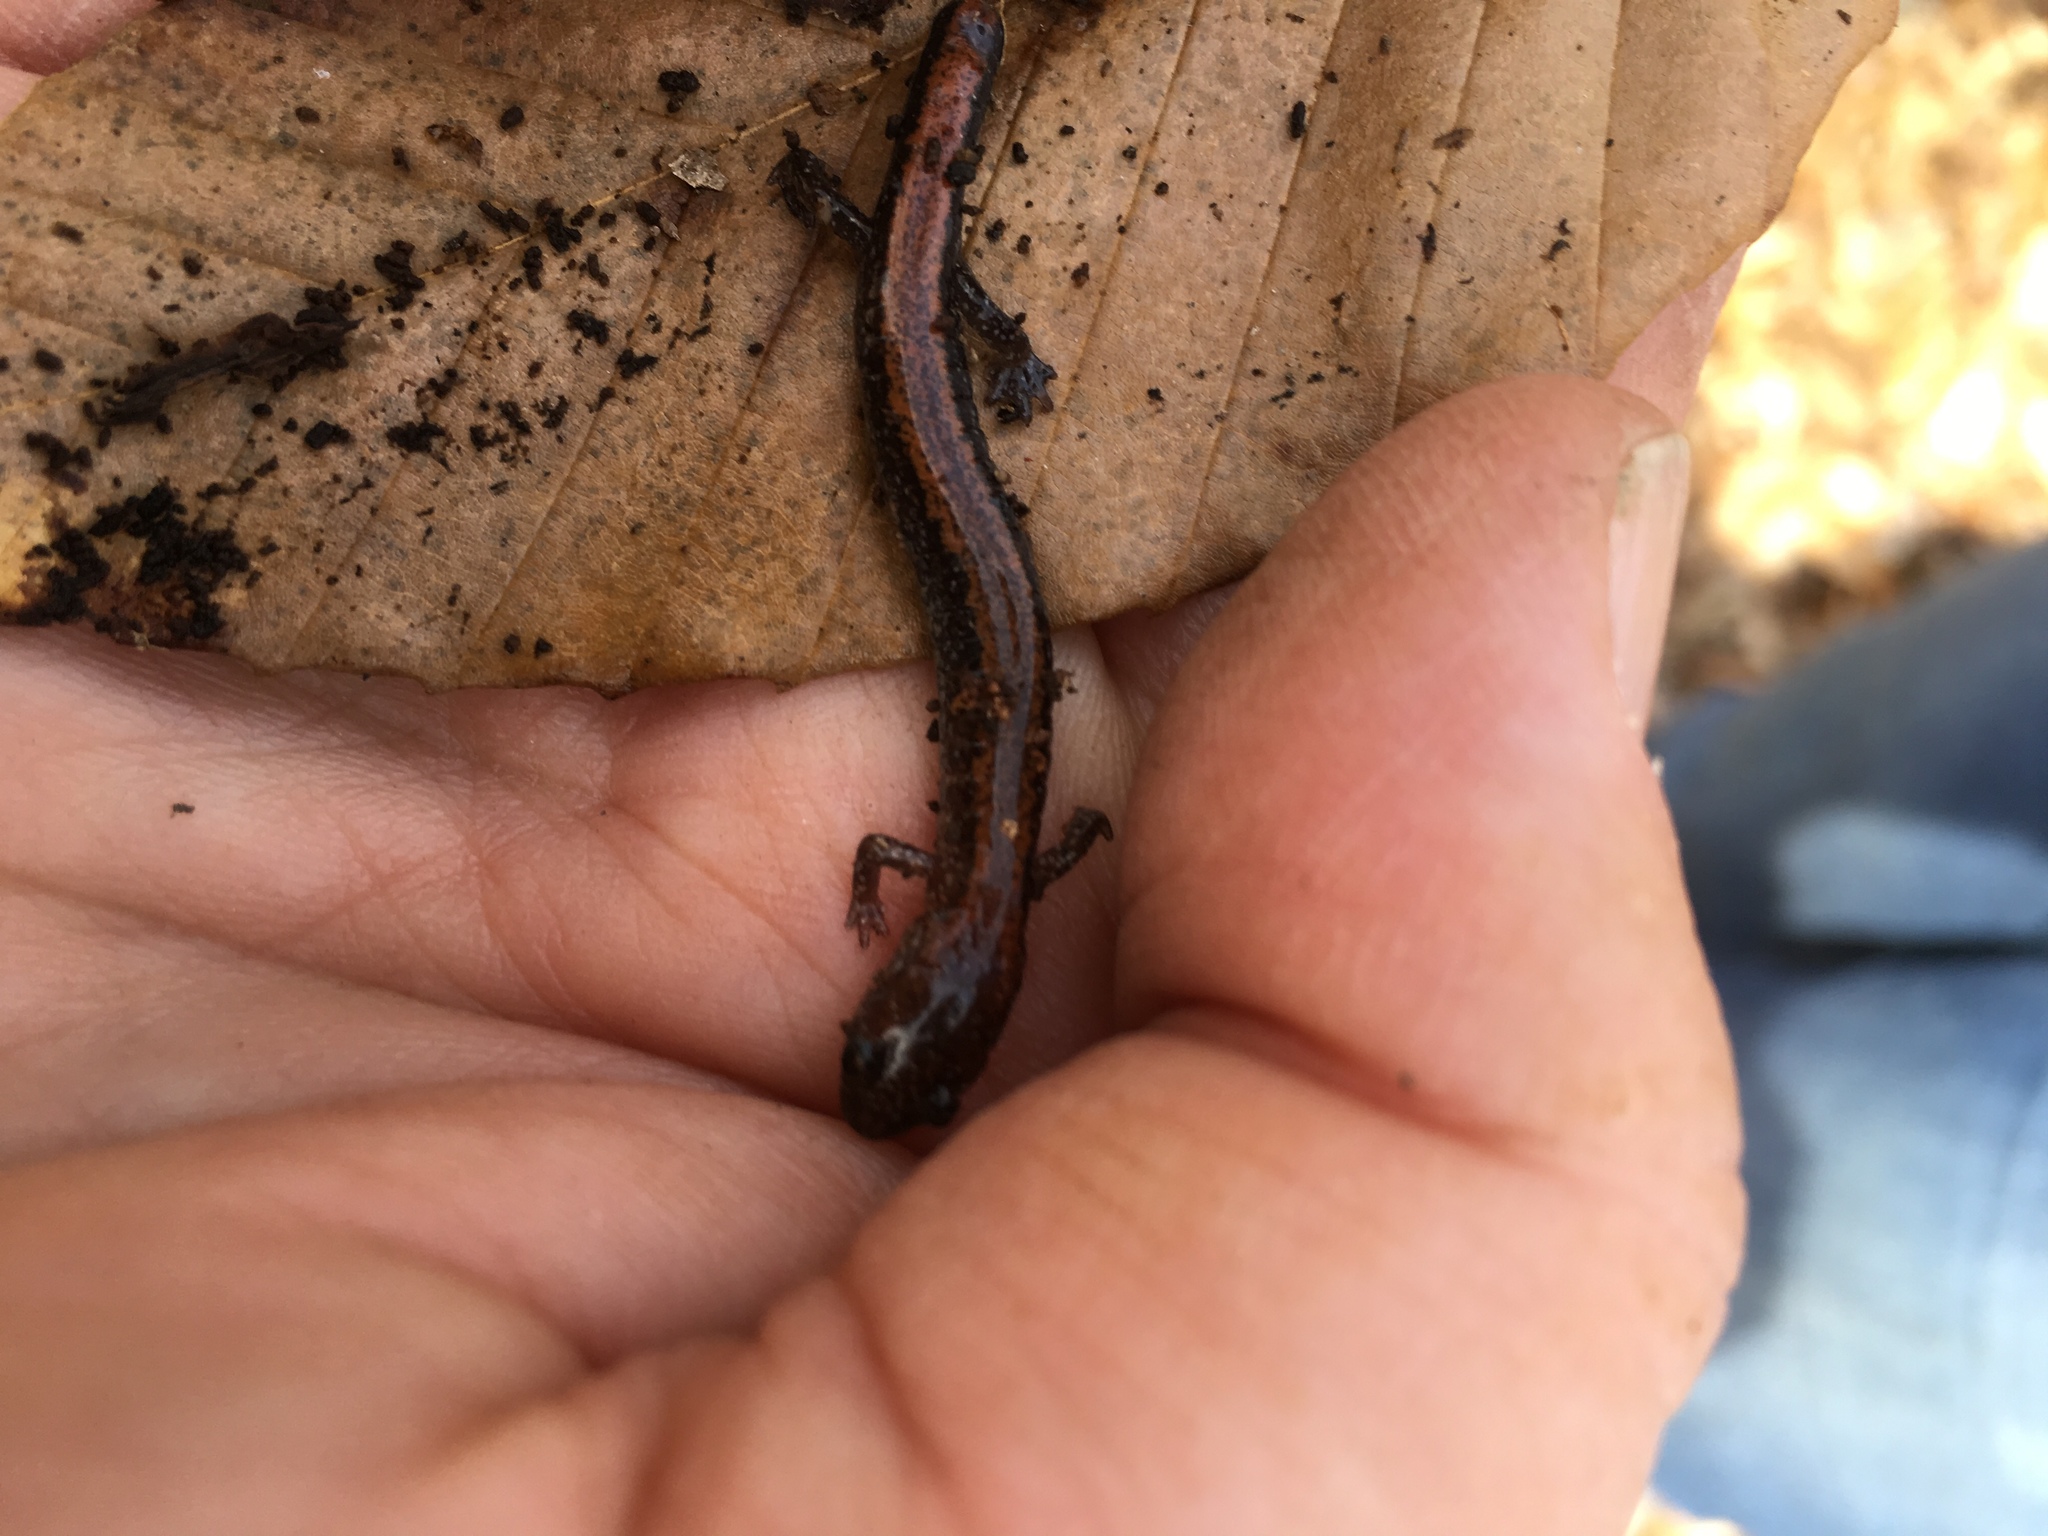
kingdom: Animalia
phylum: Chordata
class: Amphibia
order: Caudata
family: Plethodontidae
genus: Plethodon
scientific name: Plethodon cinereus
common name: Redback salamander
